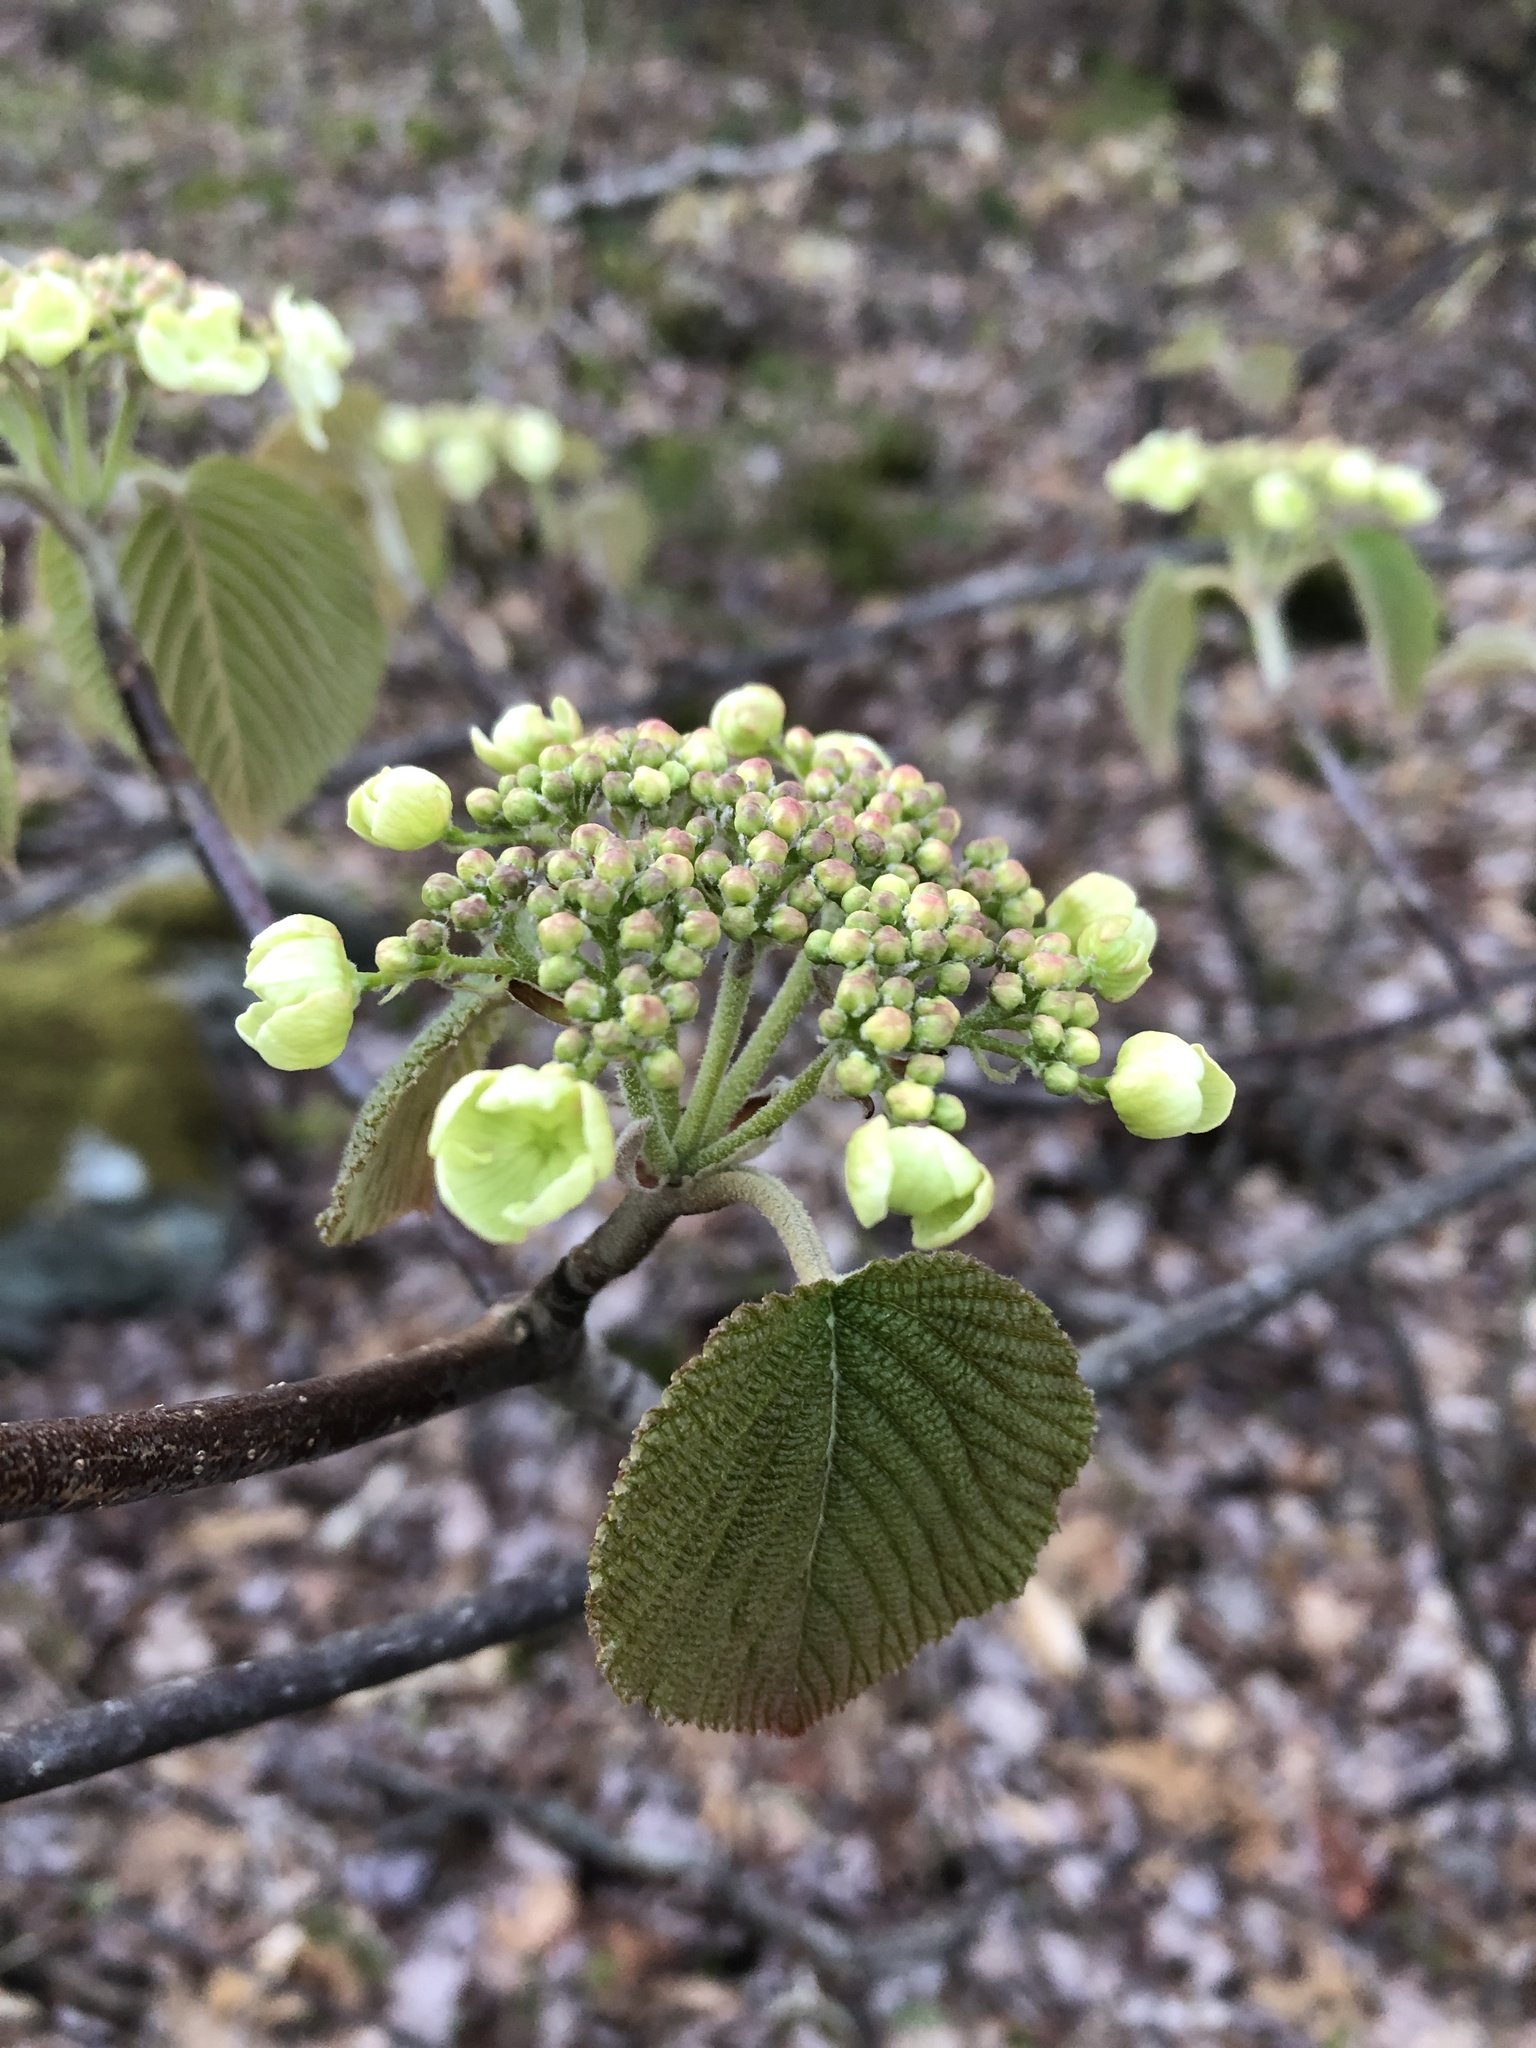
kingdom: Plantae
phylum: Tracheophyta
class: Magnoliopsida
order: Dipsacales
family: Viburnaceae
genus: Viburnum
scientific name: Viburnum lantanoides
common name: Hobblebush
